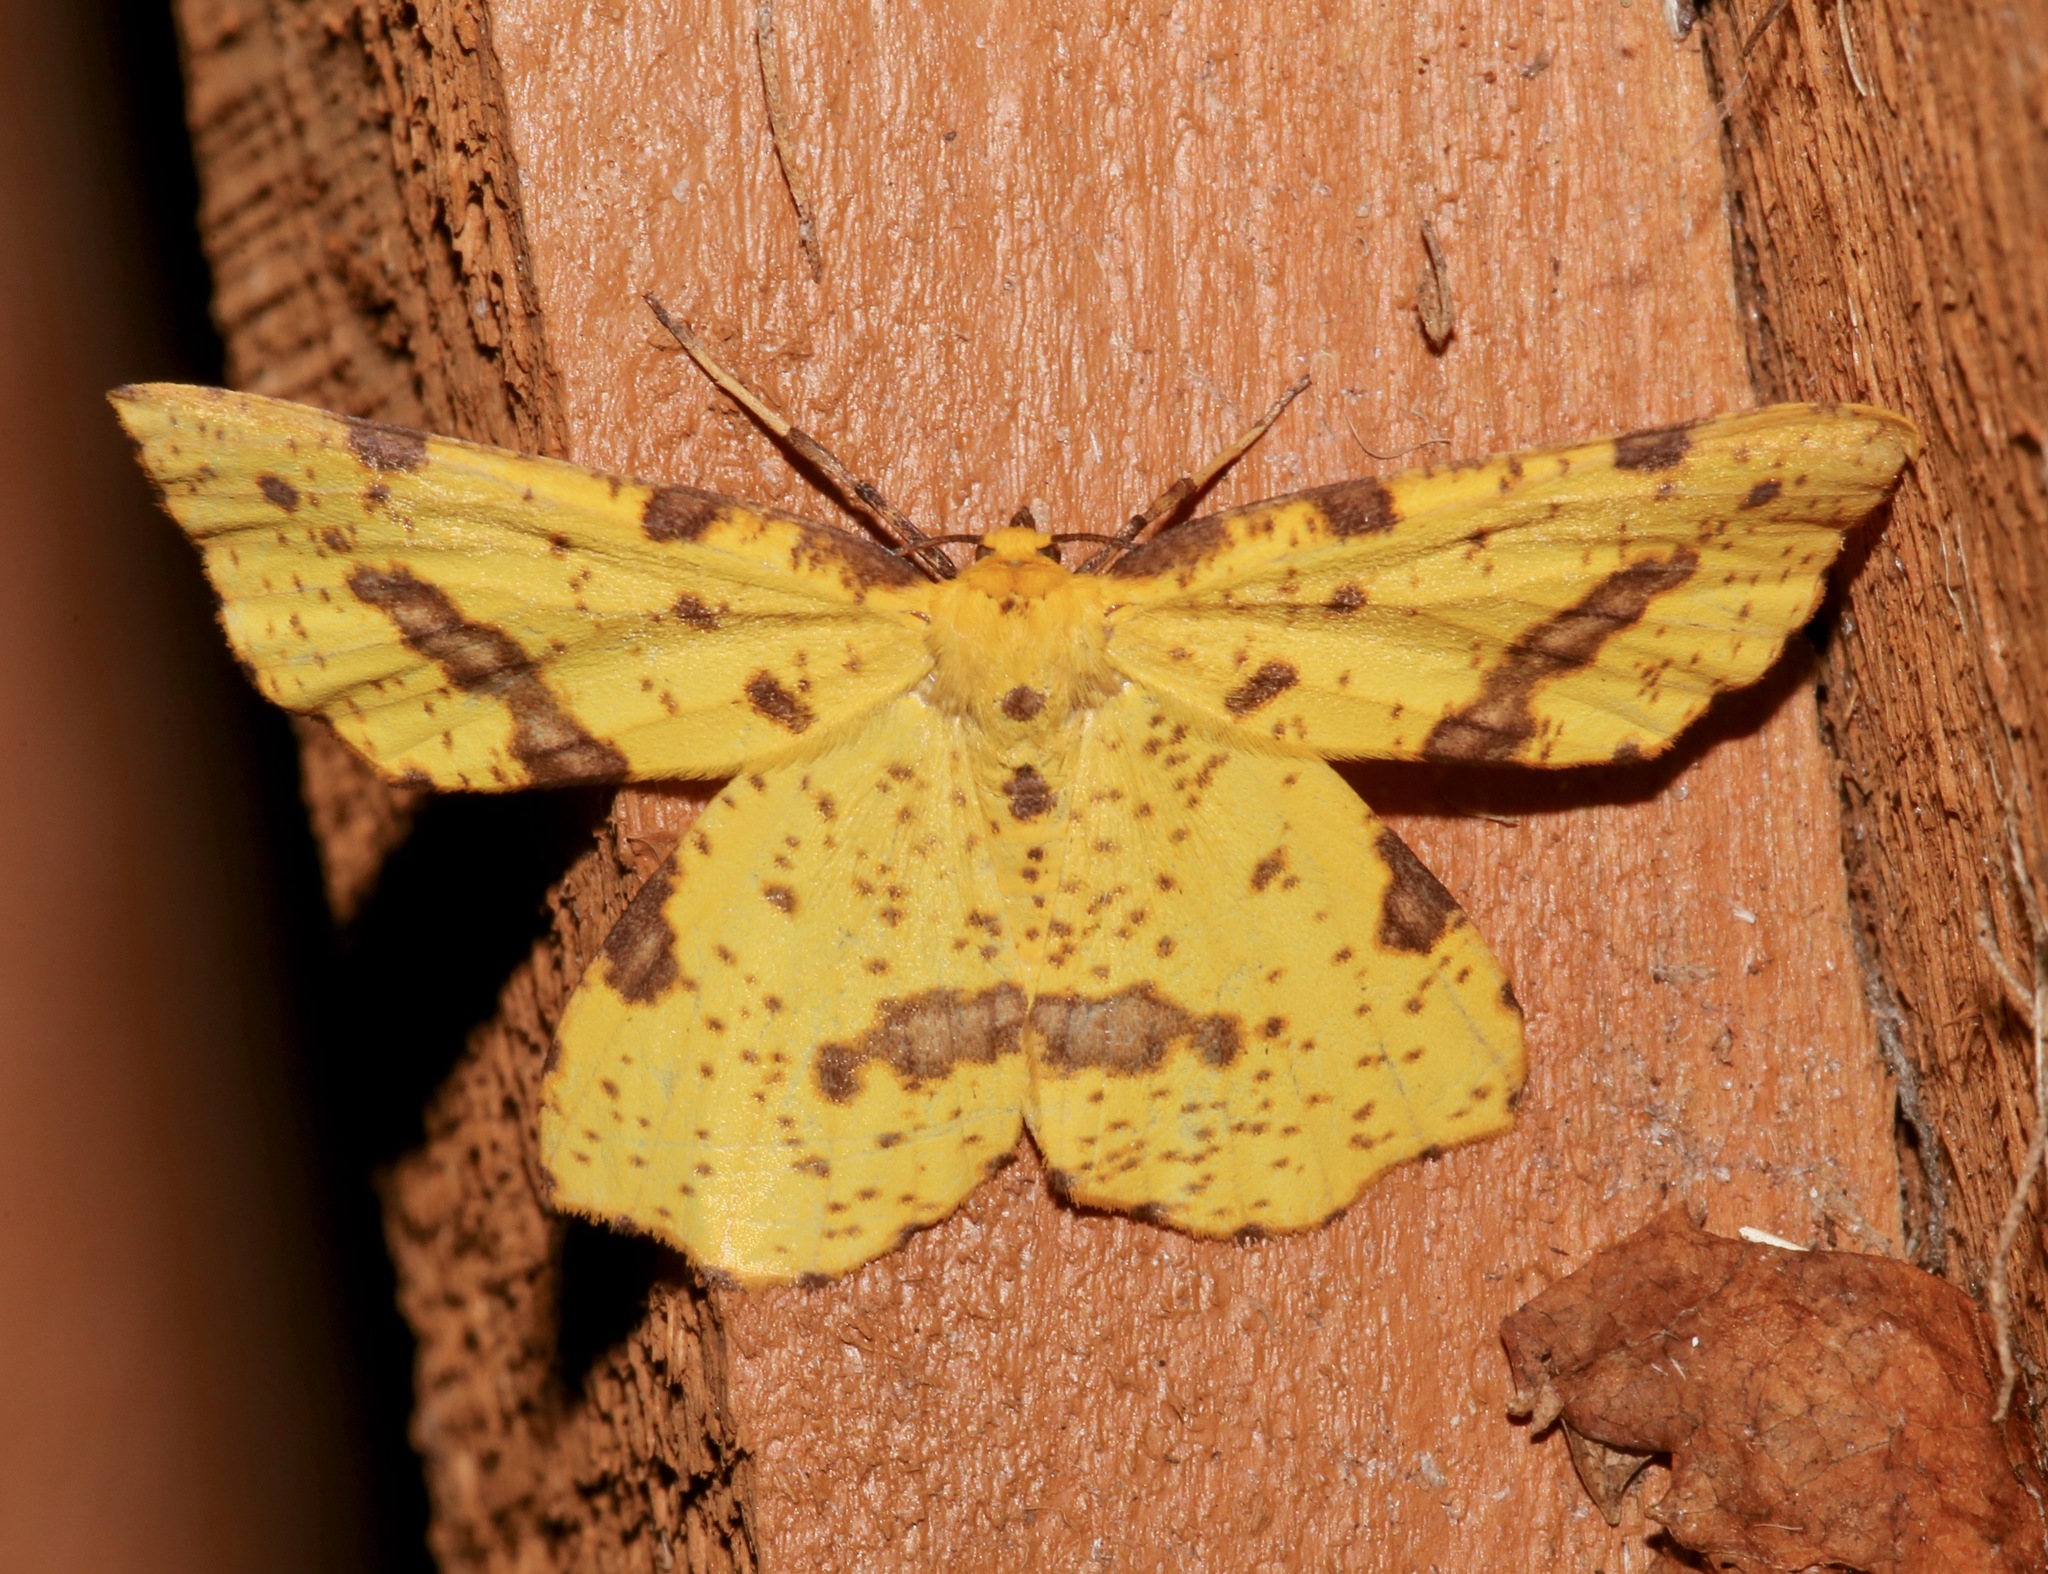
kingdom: Animalia
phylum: Arthropoda
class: Insecta
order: Lepidoptera
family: Geometridae
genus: Xanthotype
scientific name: Xanthotype
